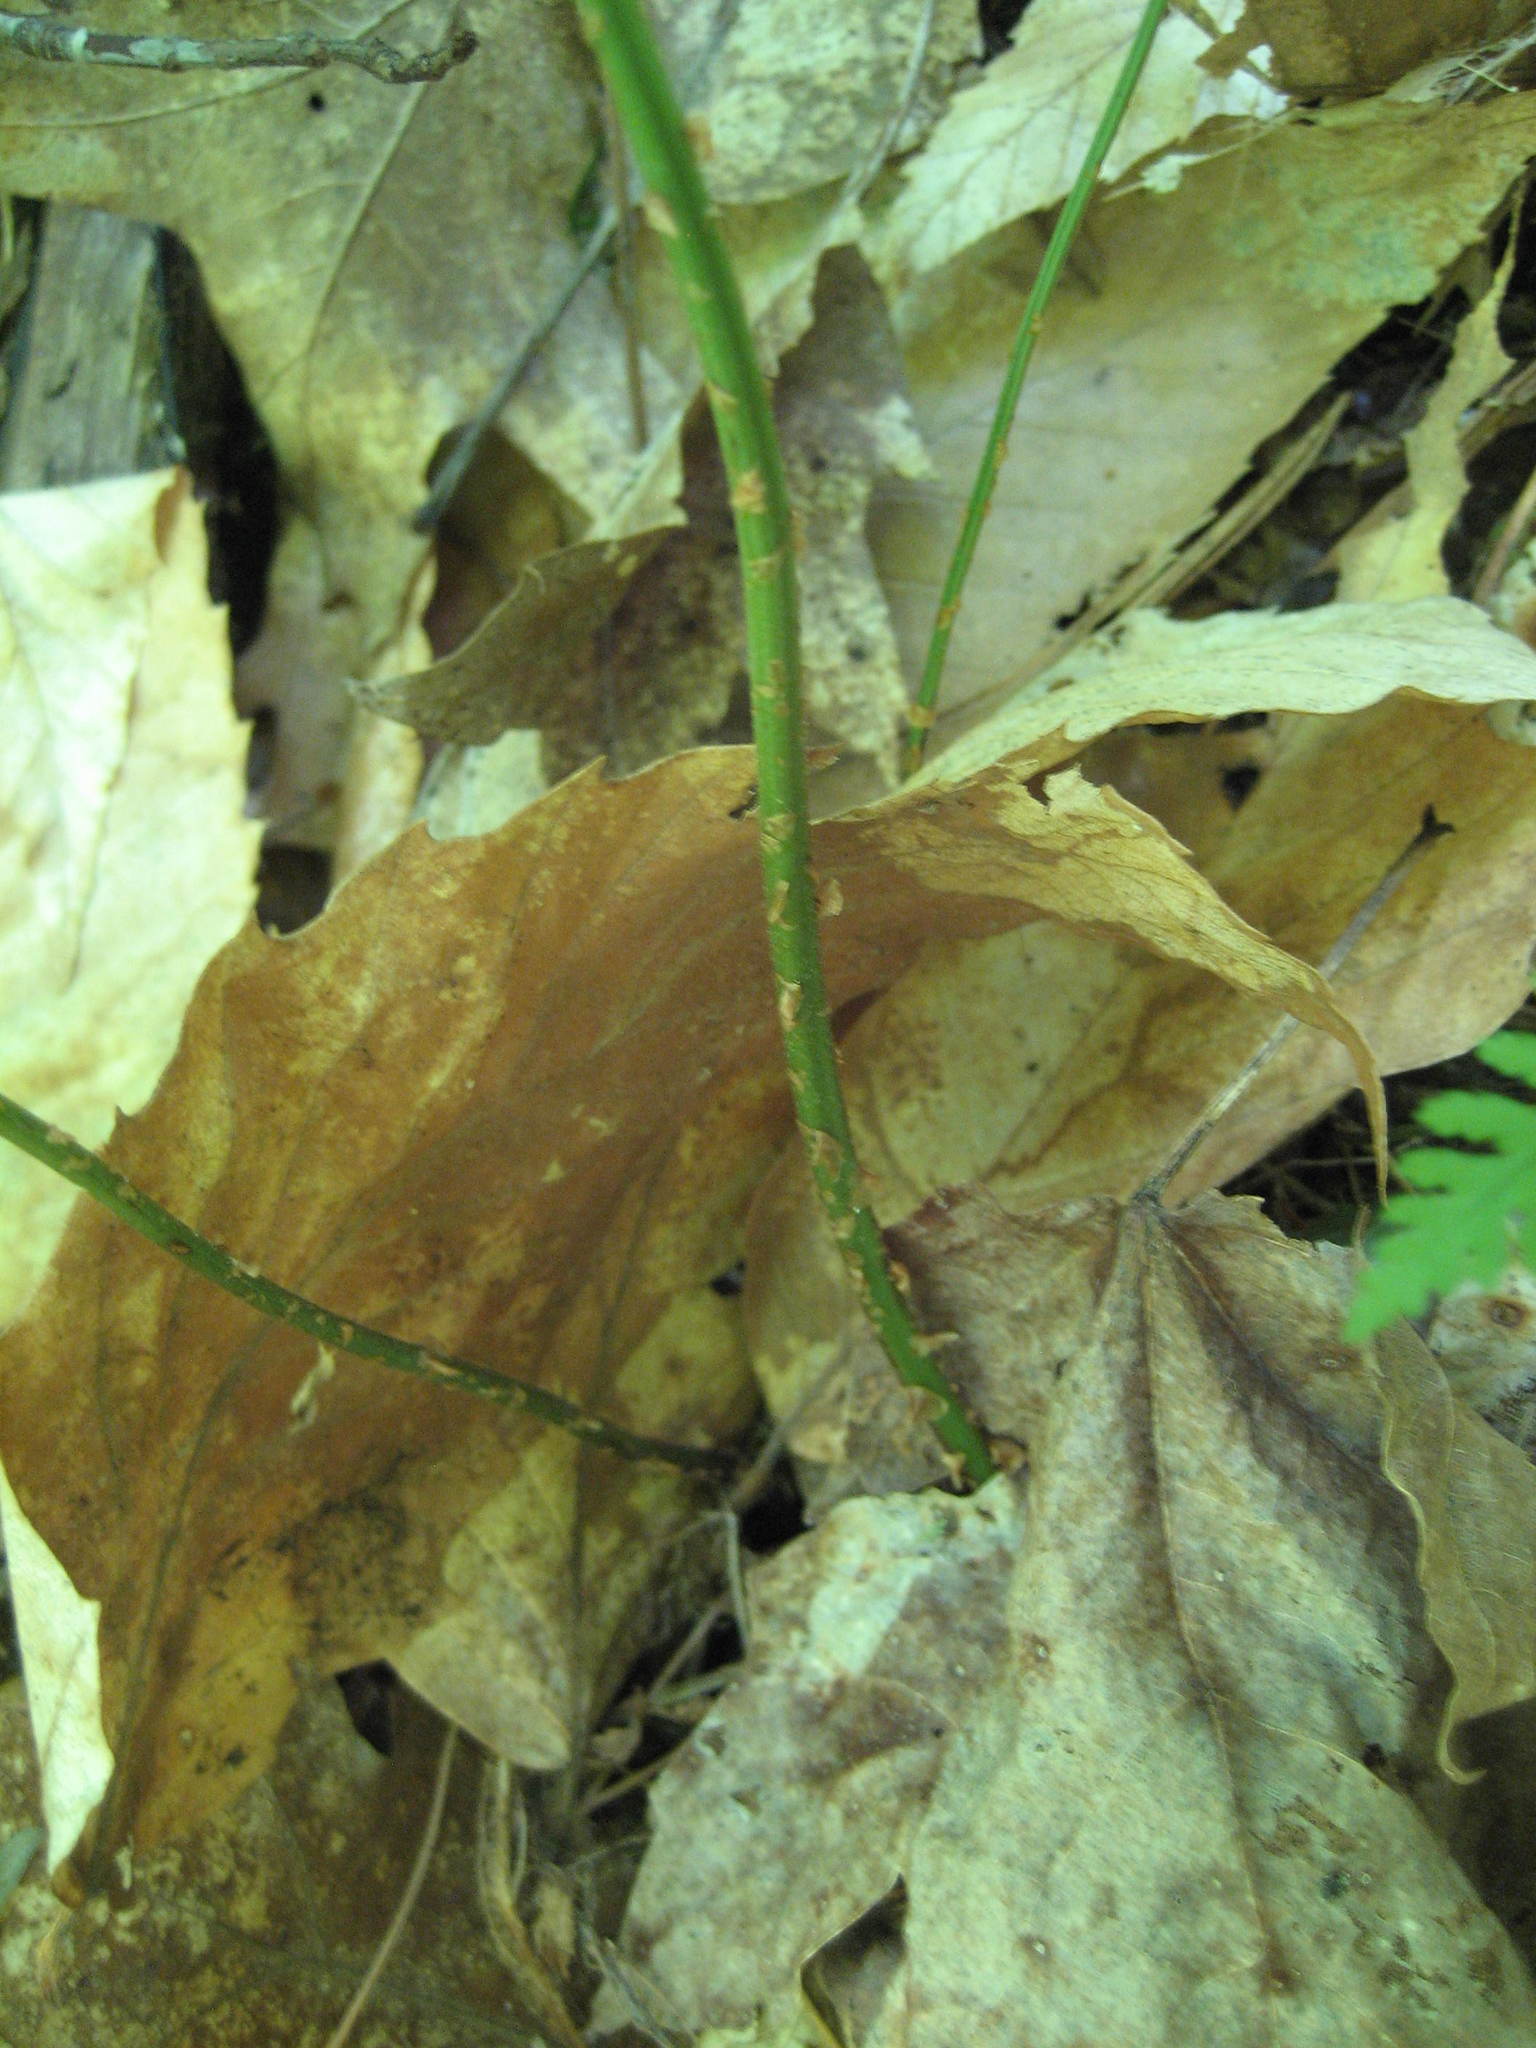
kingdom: Plantae
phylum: Tracheophyta
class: Polypodiopsida
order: Polypodiales
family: Dryopteridaceae
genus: Dryopteris
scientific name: Dryopteris intermedia
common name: Evergreen wood fern
